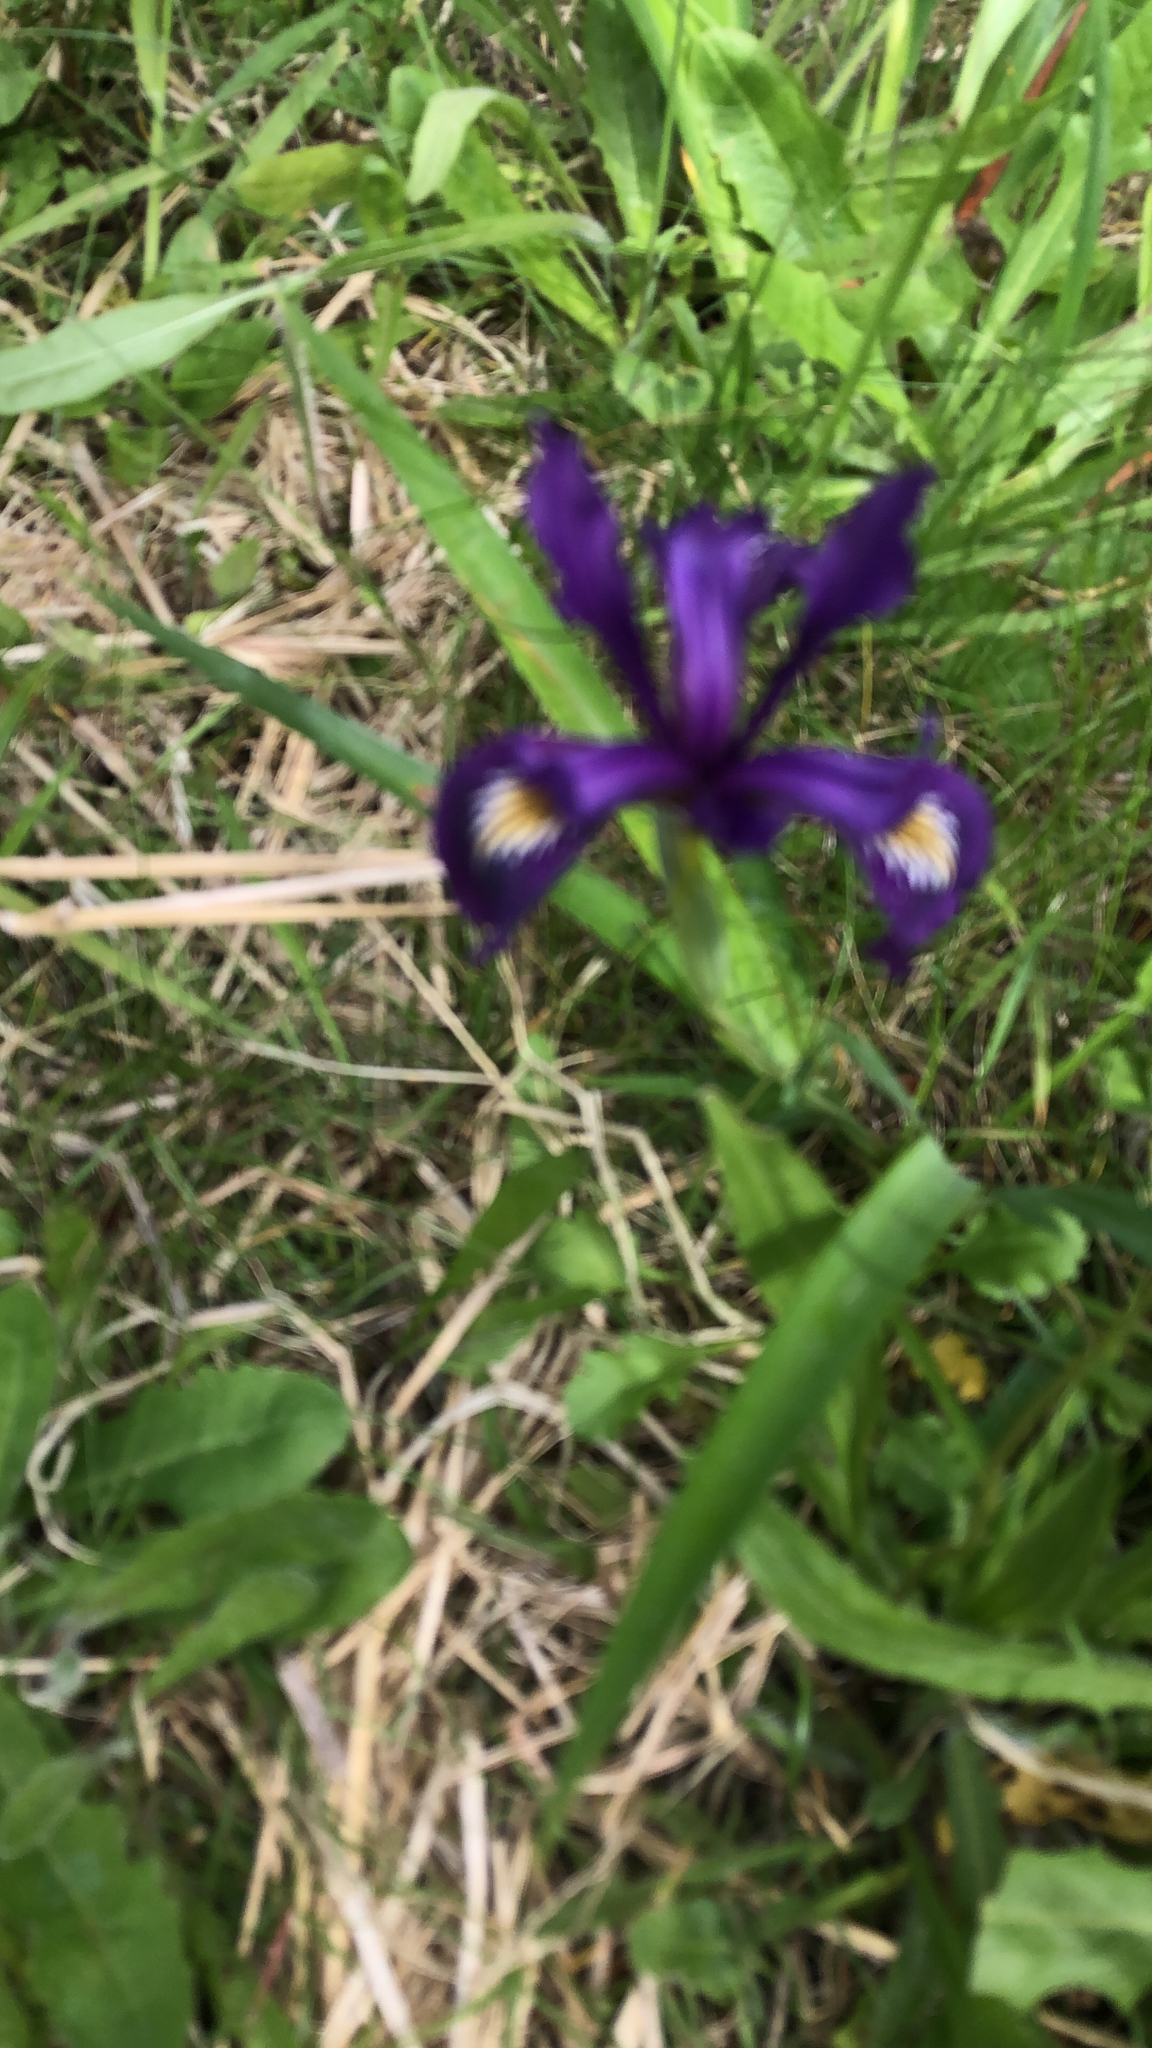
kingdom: Plantae
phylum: Tracheophyta
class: Liliopsida
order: Asparagales
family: Iridaceae
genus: Iris
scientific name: Iris douglasiana
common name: Marin iris
